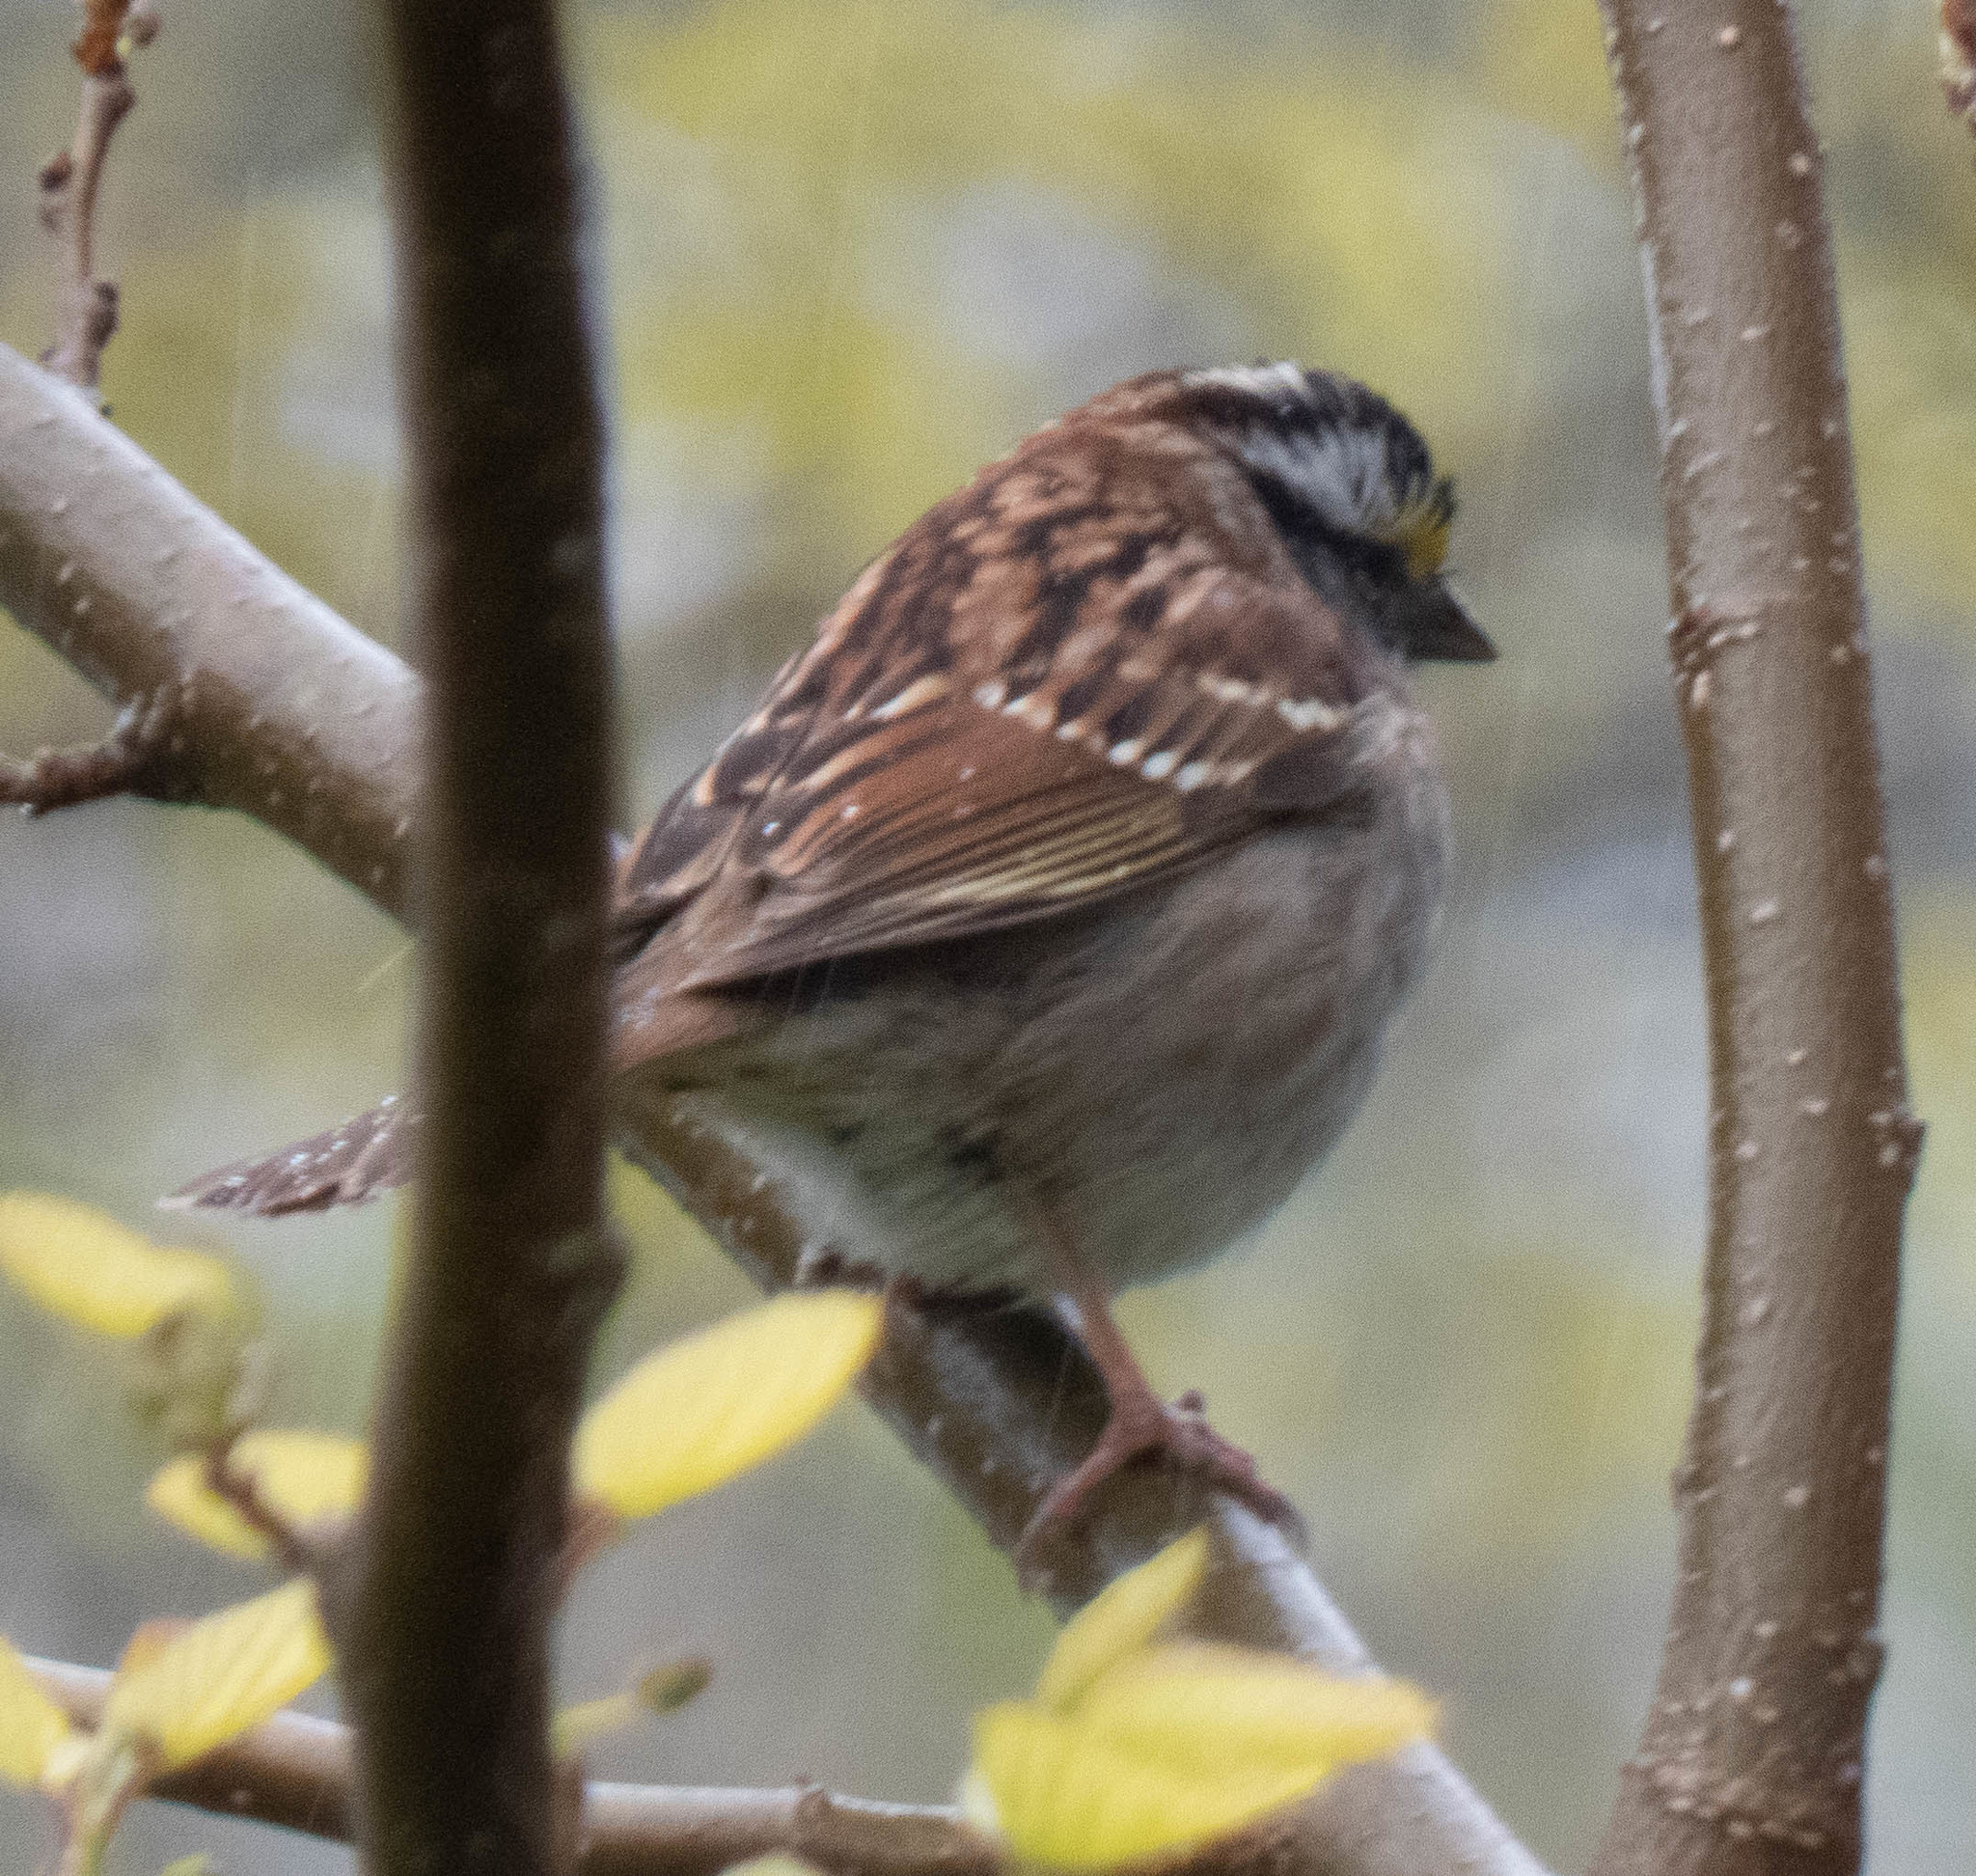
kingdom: Animalia
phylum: Chordata
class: Aves
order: Passeriformes
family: Passerellidae
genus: Zonotrichia
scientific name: Zonotrichia albicollis
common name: White-throated sparrow
